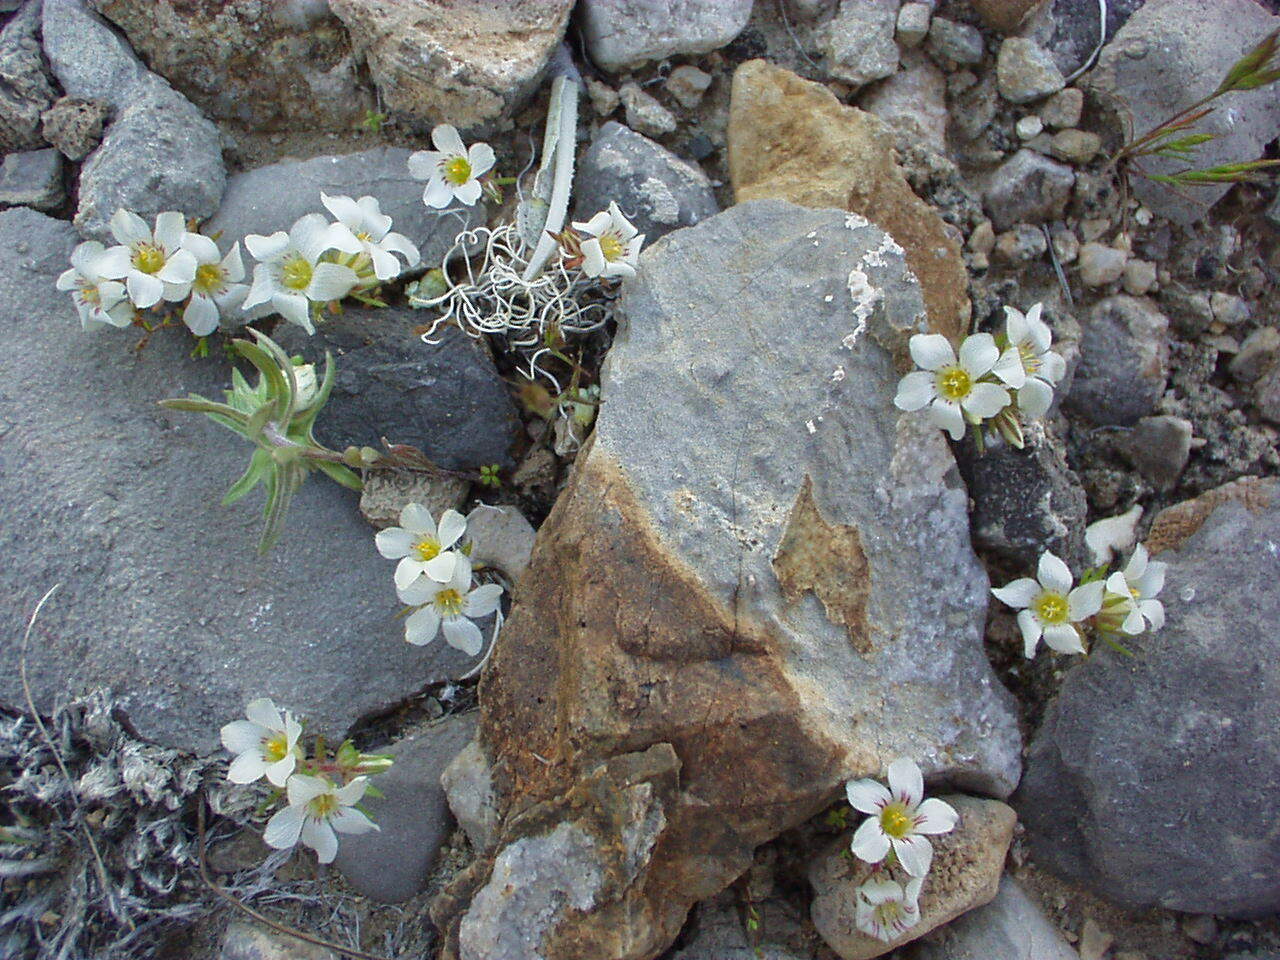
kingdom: Plantae
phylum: Tracheophyta
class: Magnoliopsida
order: Ericales
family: Polemoniaceae
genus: Linanthus
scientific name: Linanthus demissus
